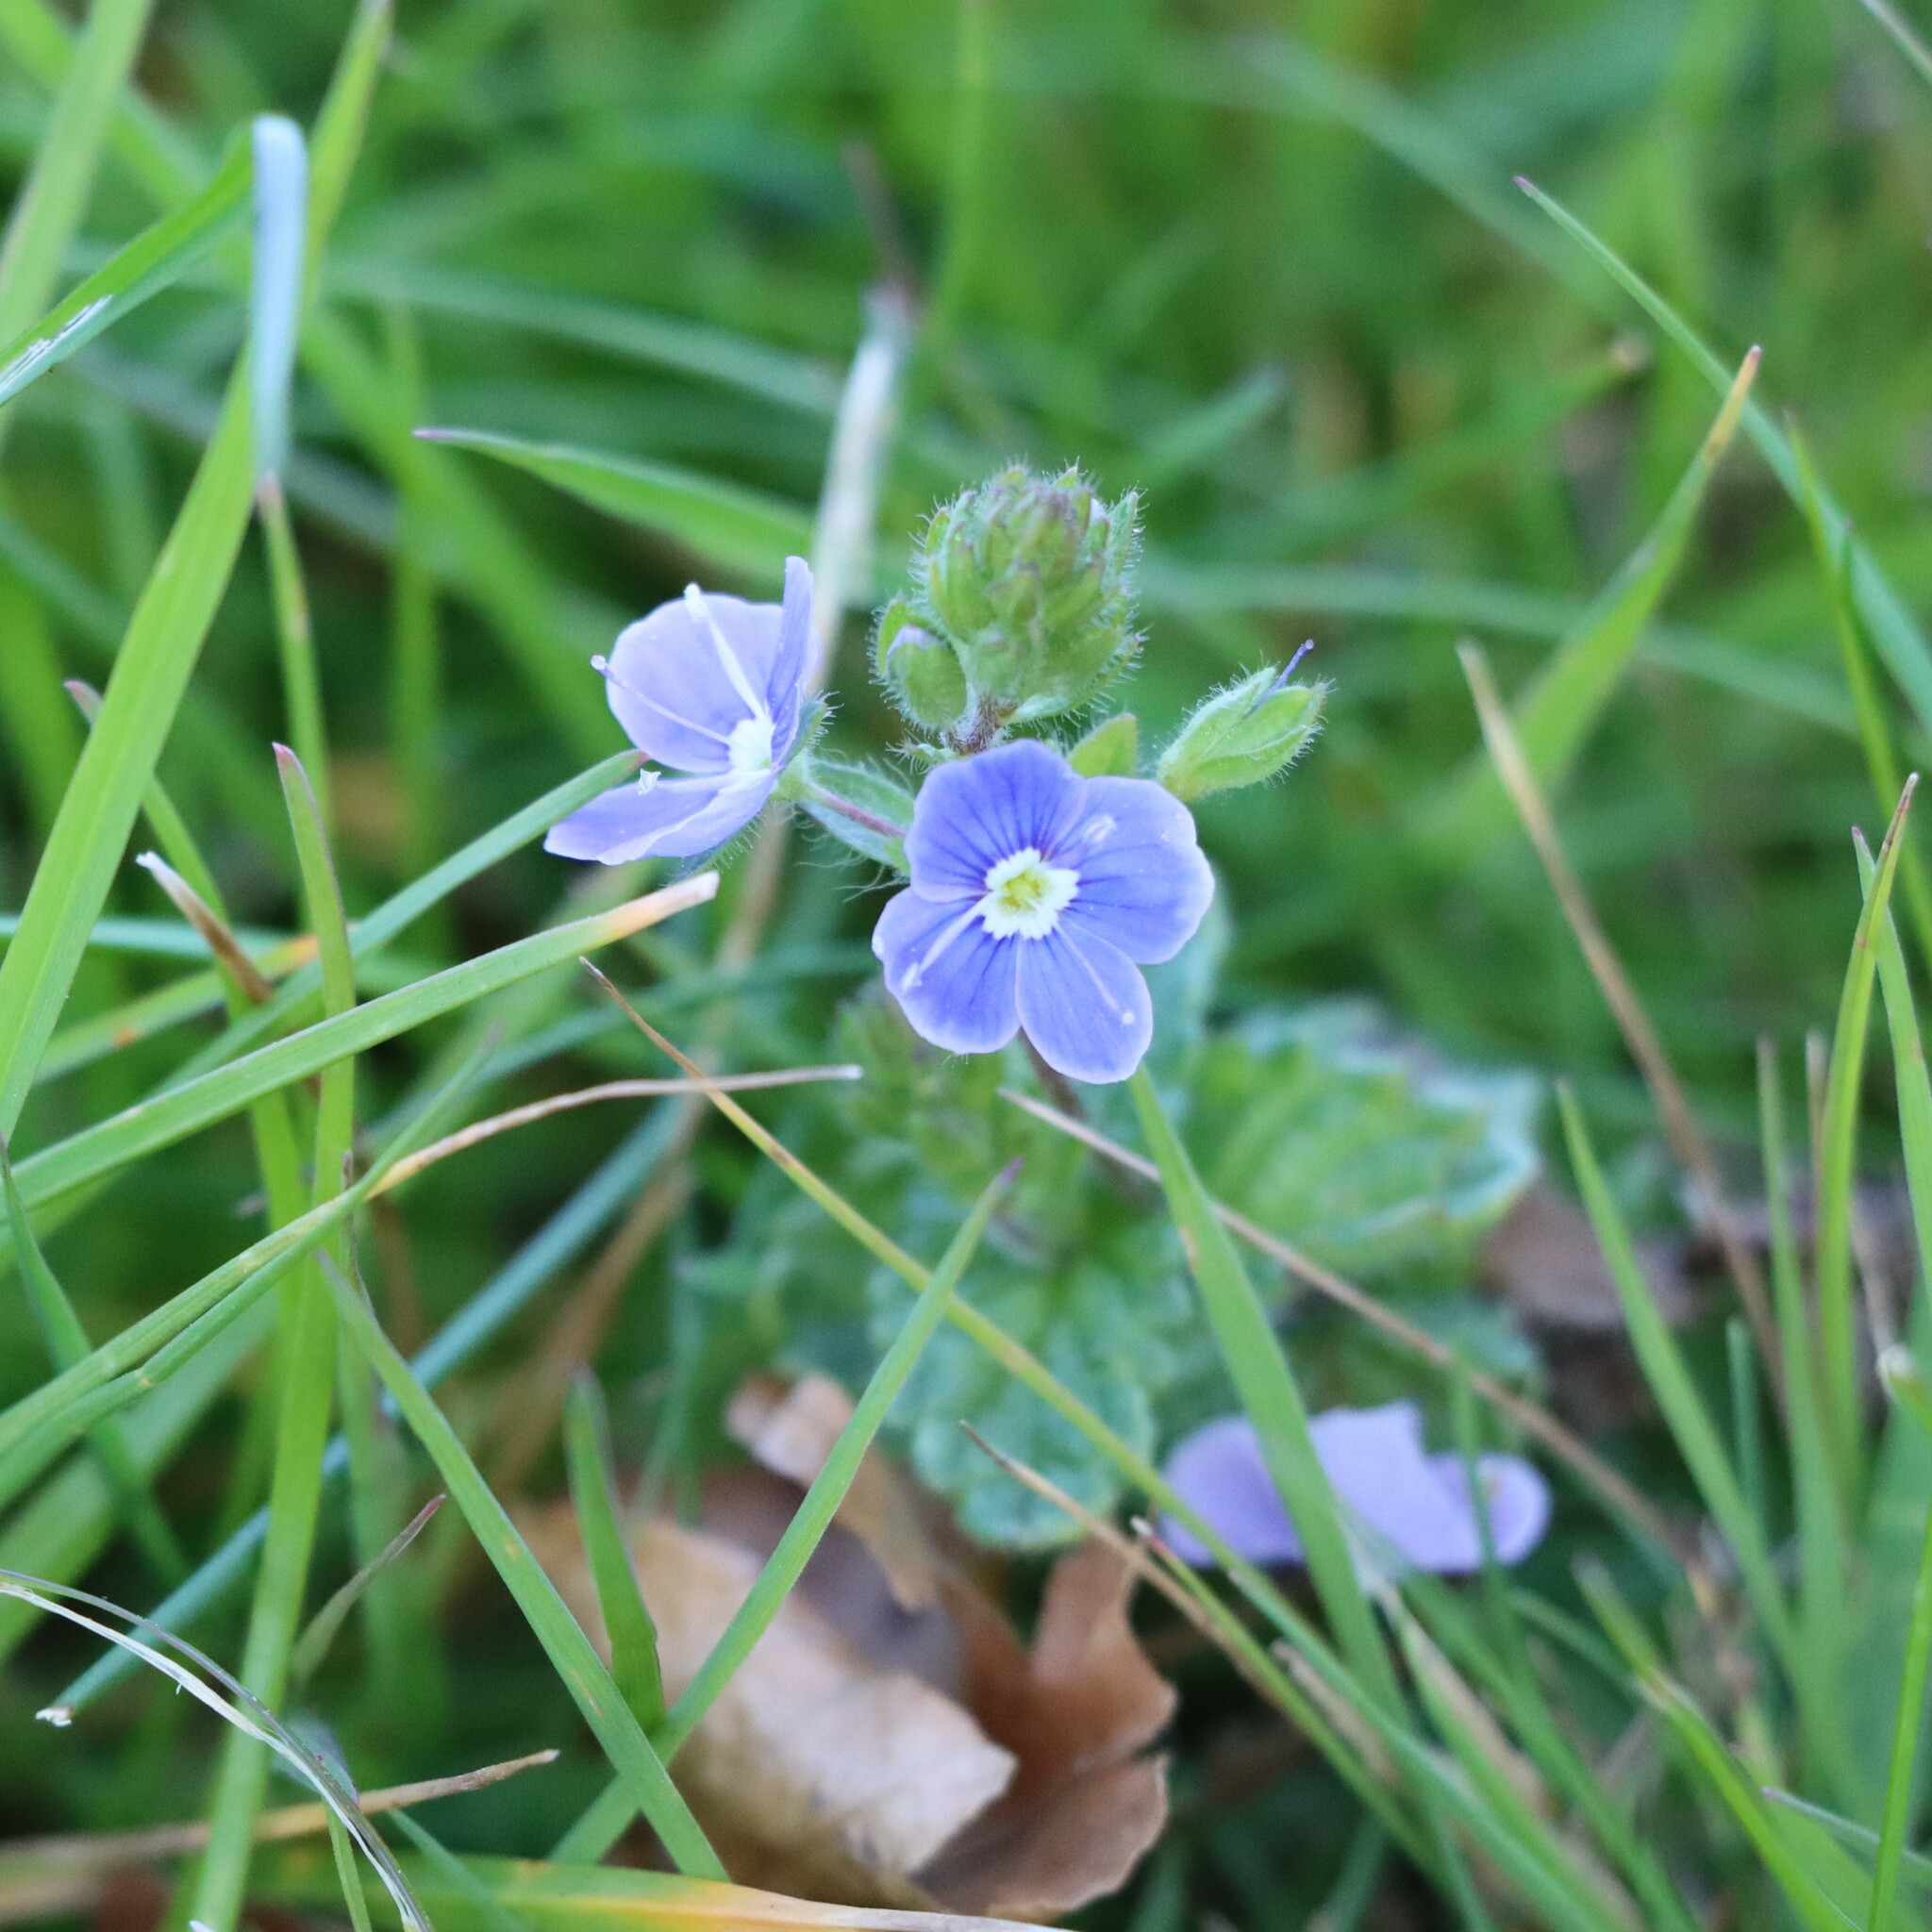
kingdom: Plantae
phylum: Tracheophyta
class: Magnoliopsida
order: Lamiales
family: Plantaginaceae
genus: Veronica
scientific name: Veronica chamaedrys
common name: Germander speedwell
